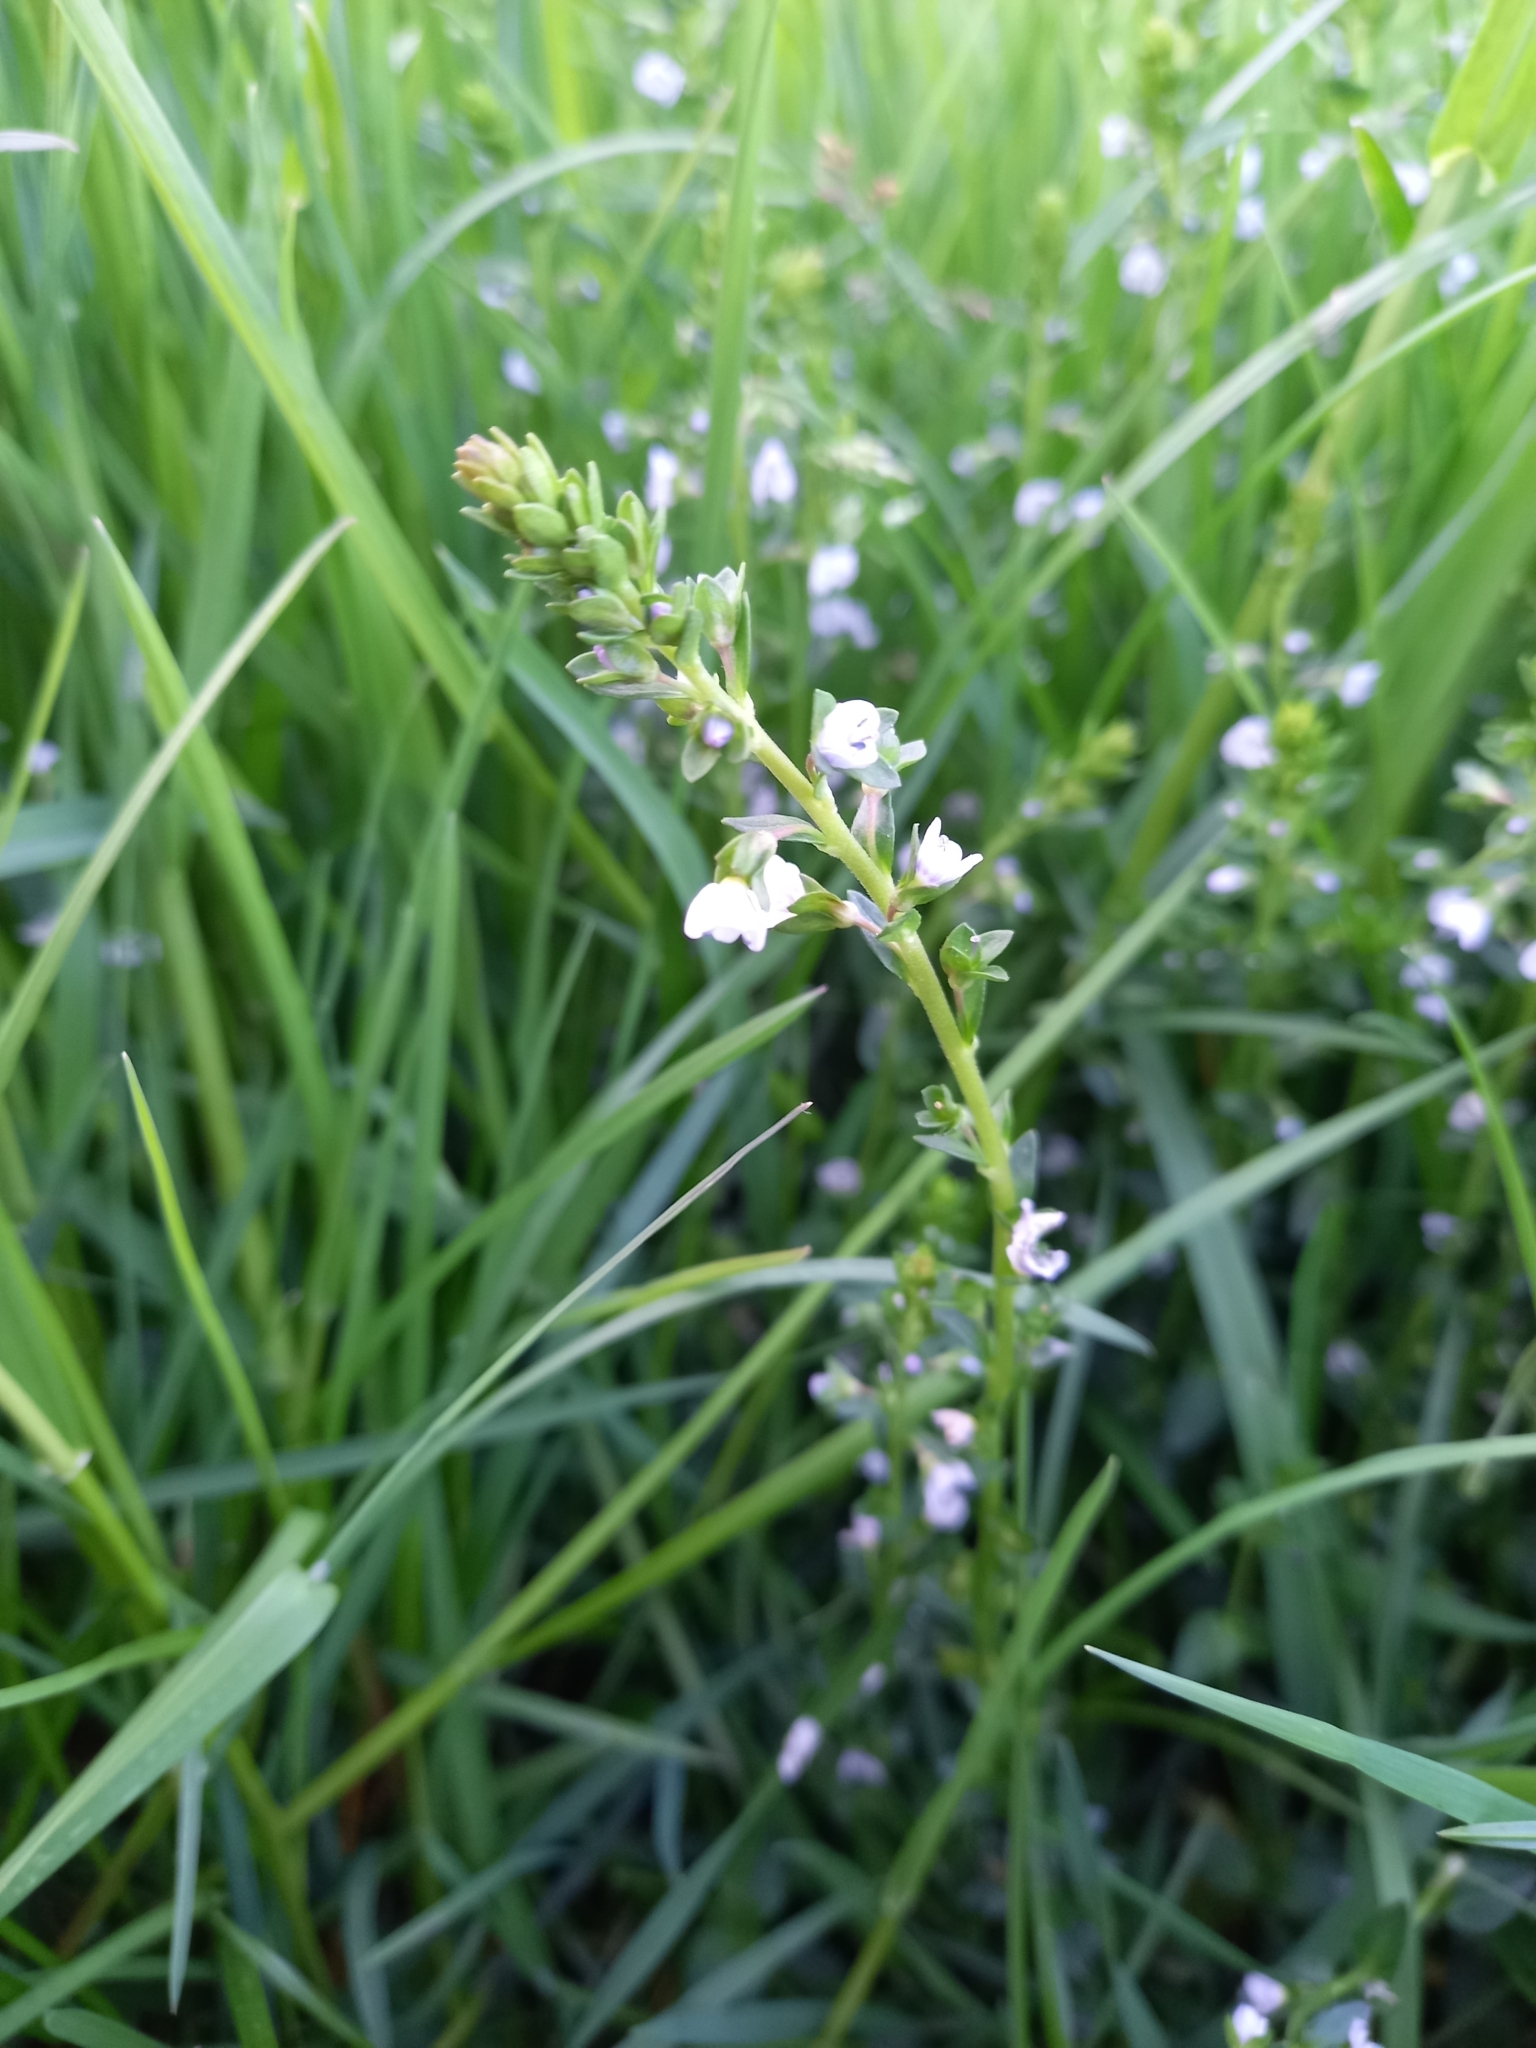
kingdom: Plantae
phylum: Tracheophyta
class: Magnoliopsida
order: Lamiales
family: Plantaginaceae
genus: Veronica
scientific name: Veronica serpyllifolia
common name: Thyme-leaved speedwell
